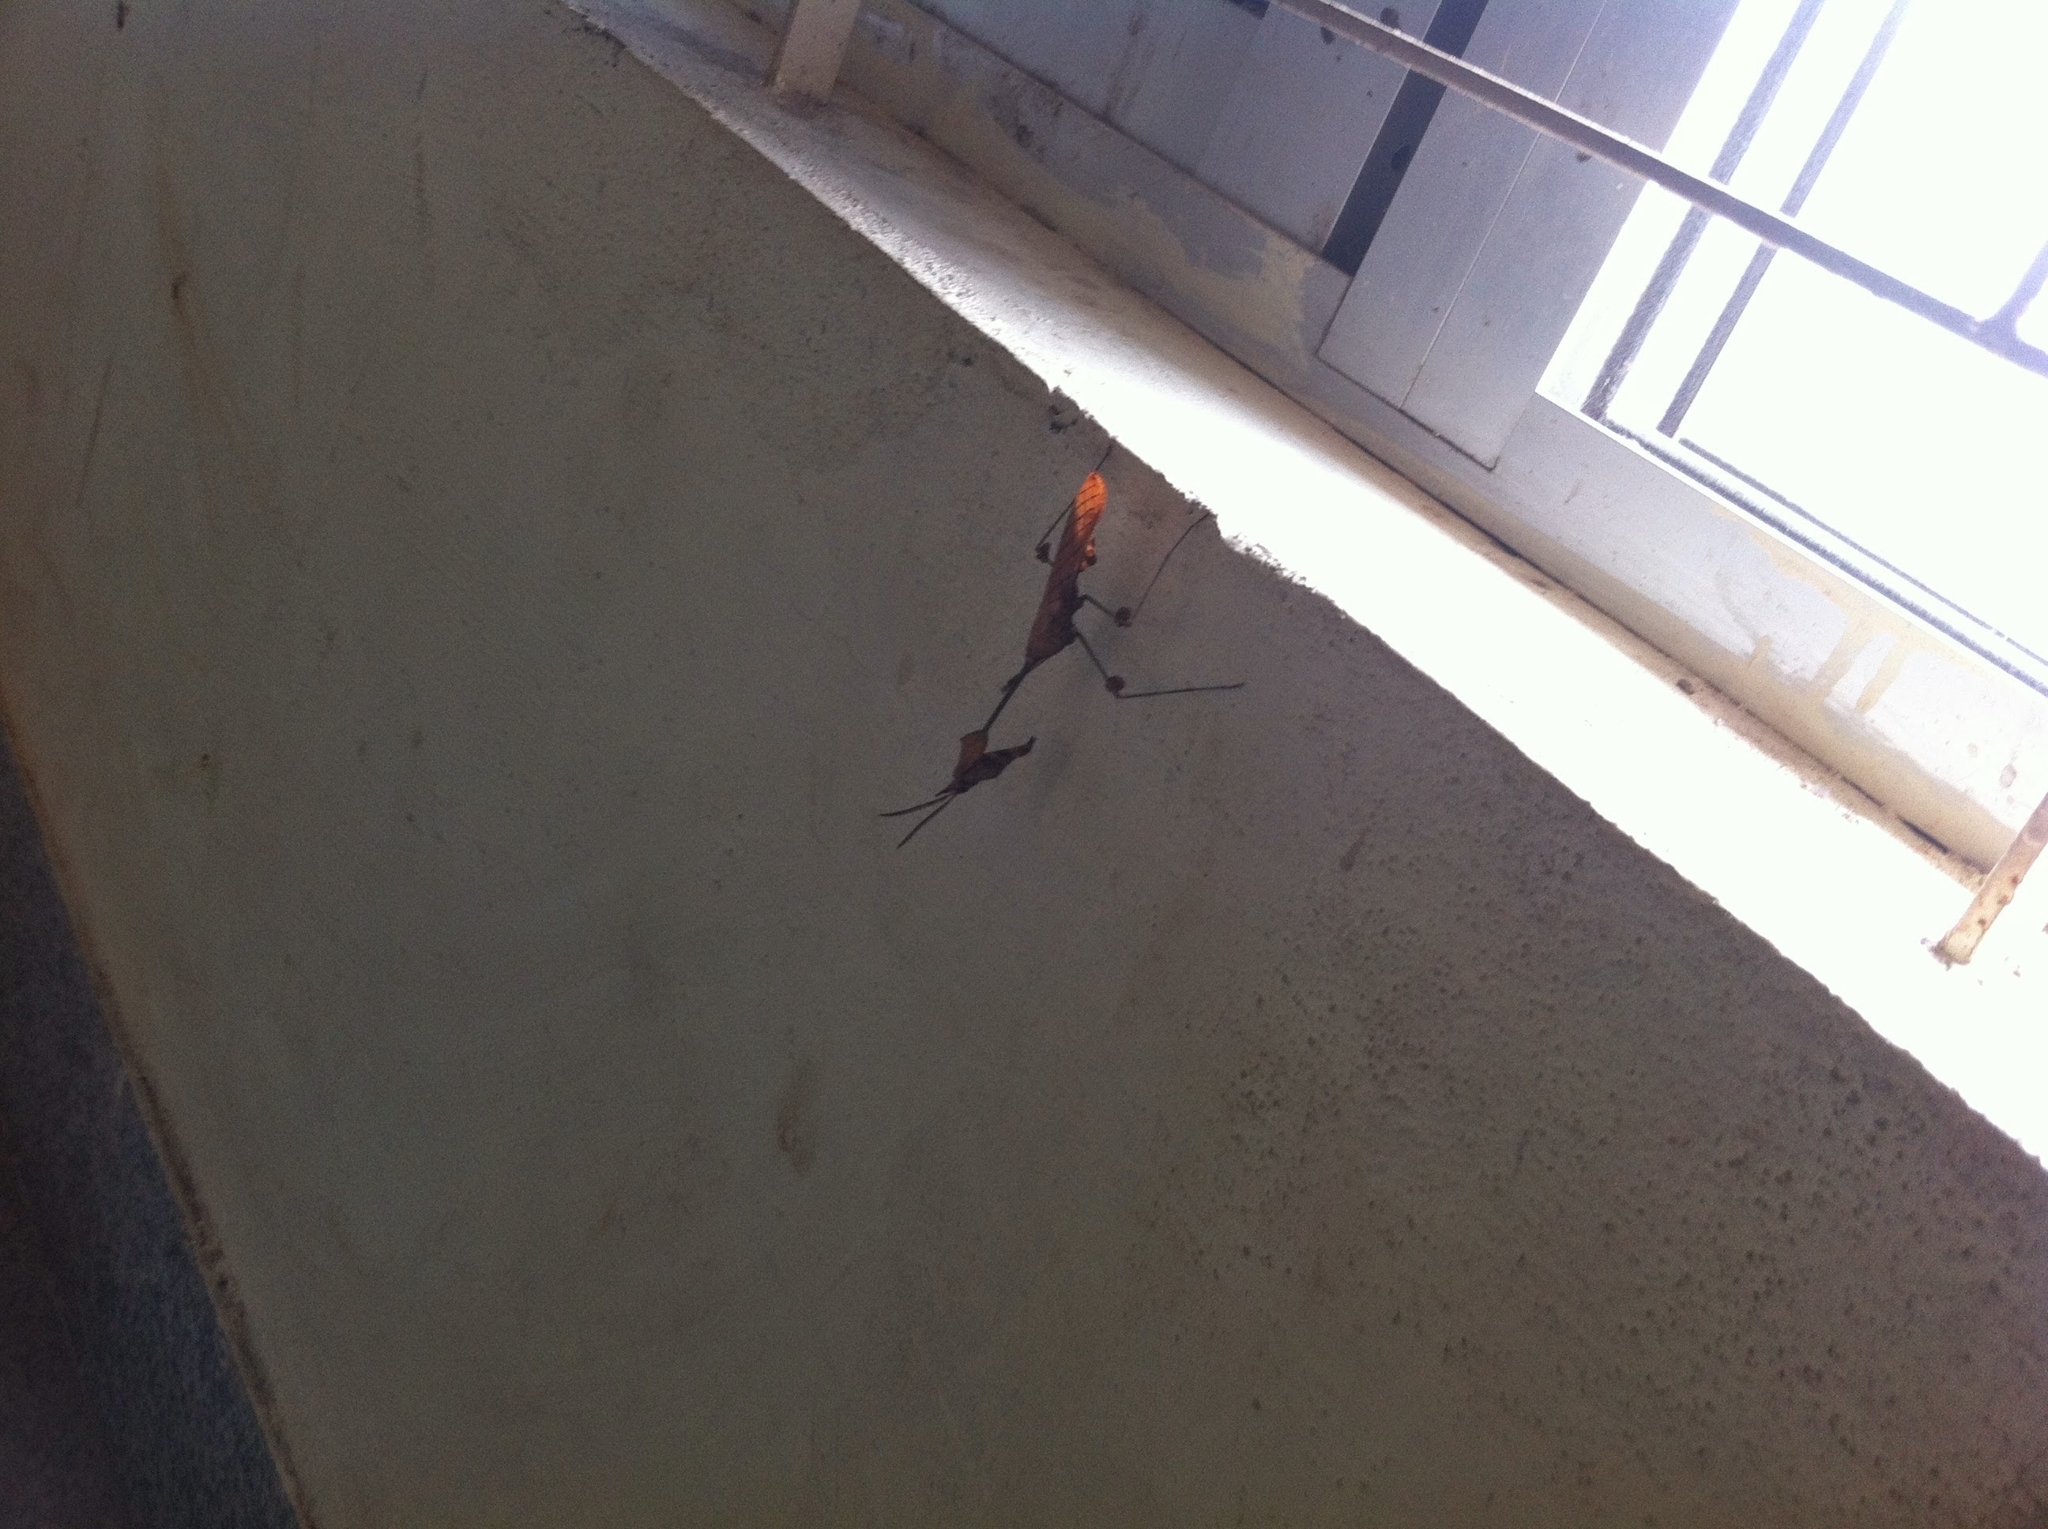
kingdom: Animalia
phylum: Arthropoda
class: Insecta
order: Mantodea
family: Empusidae
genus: Gongylus
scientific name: Gongylus gongylodes
